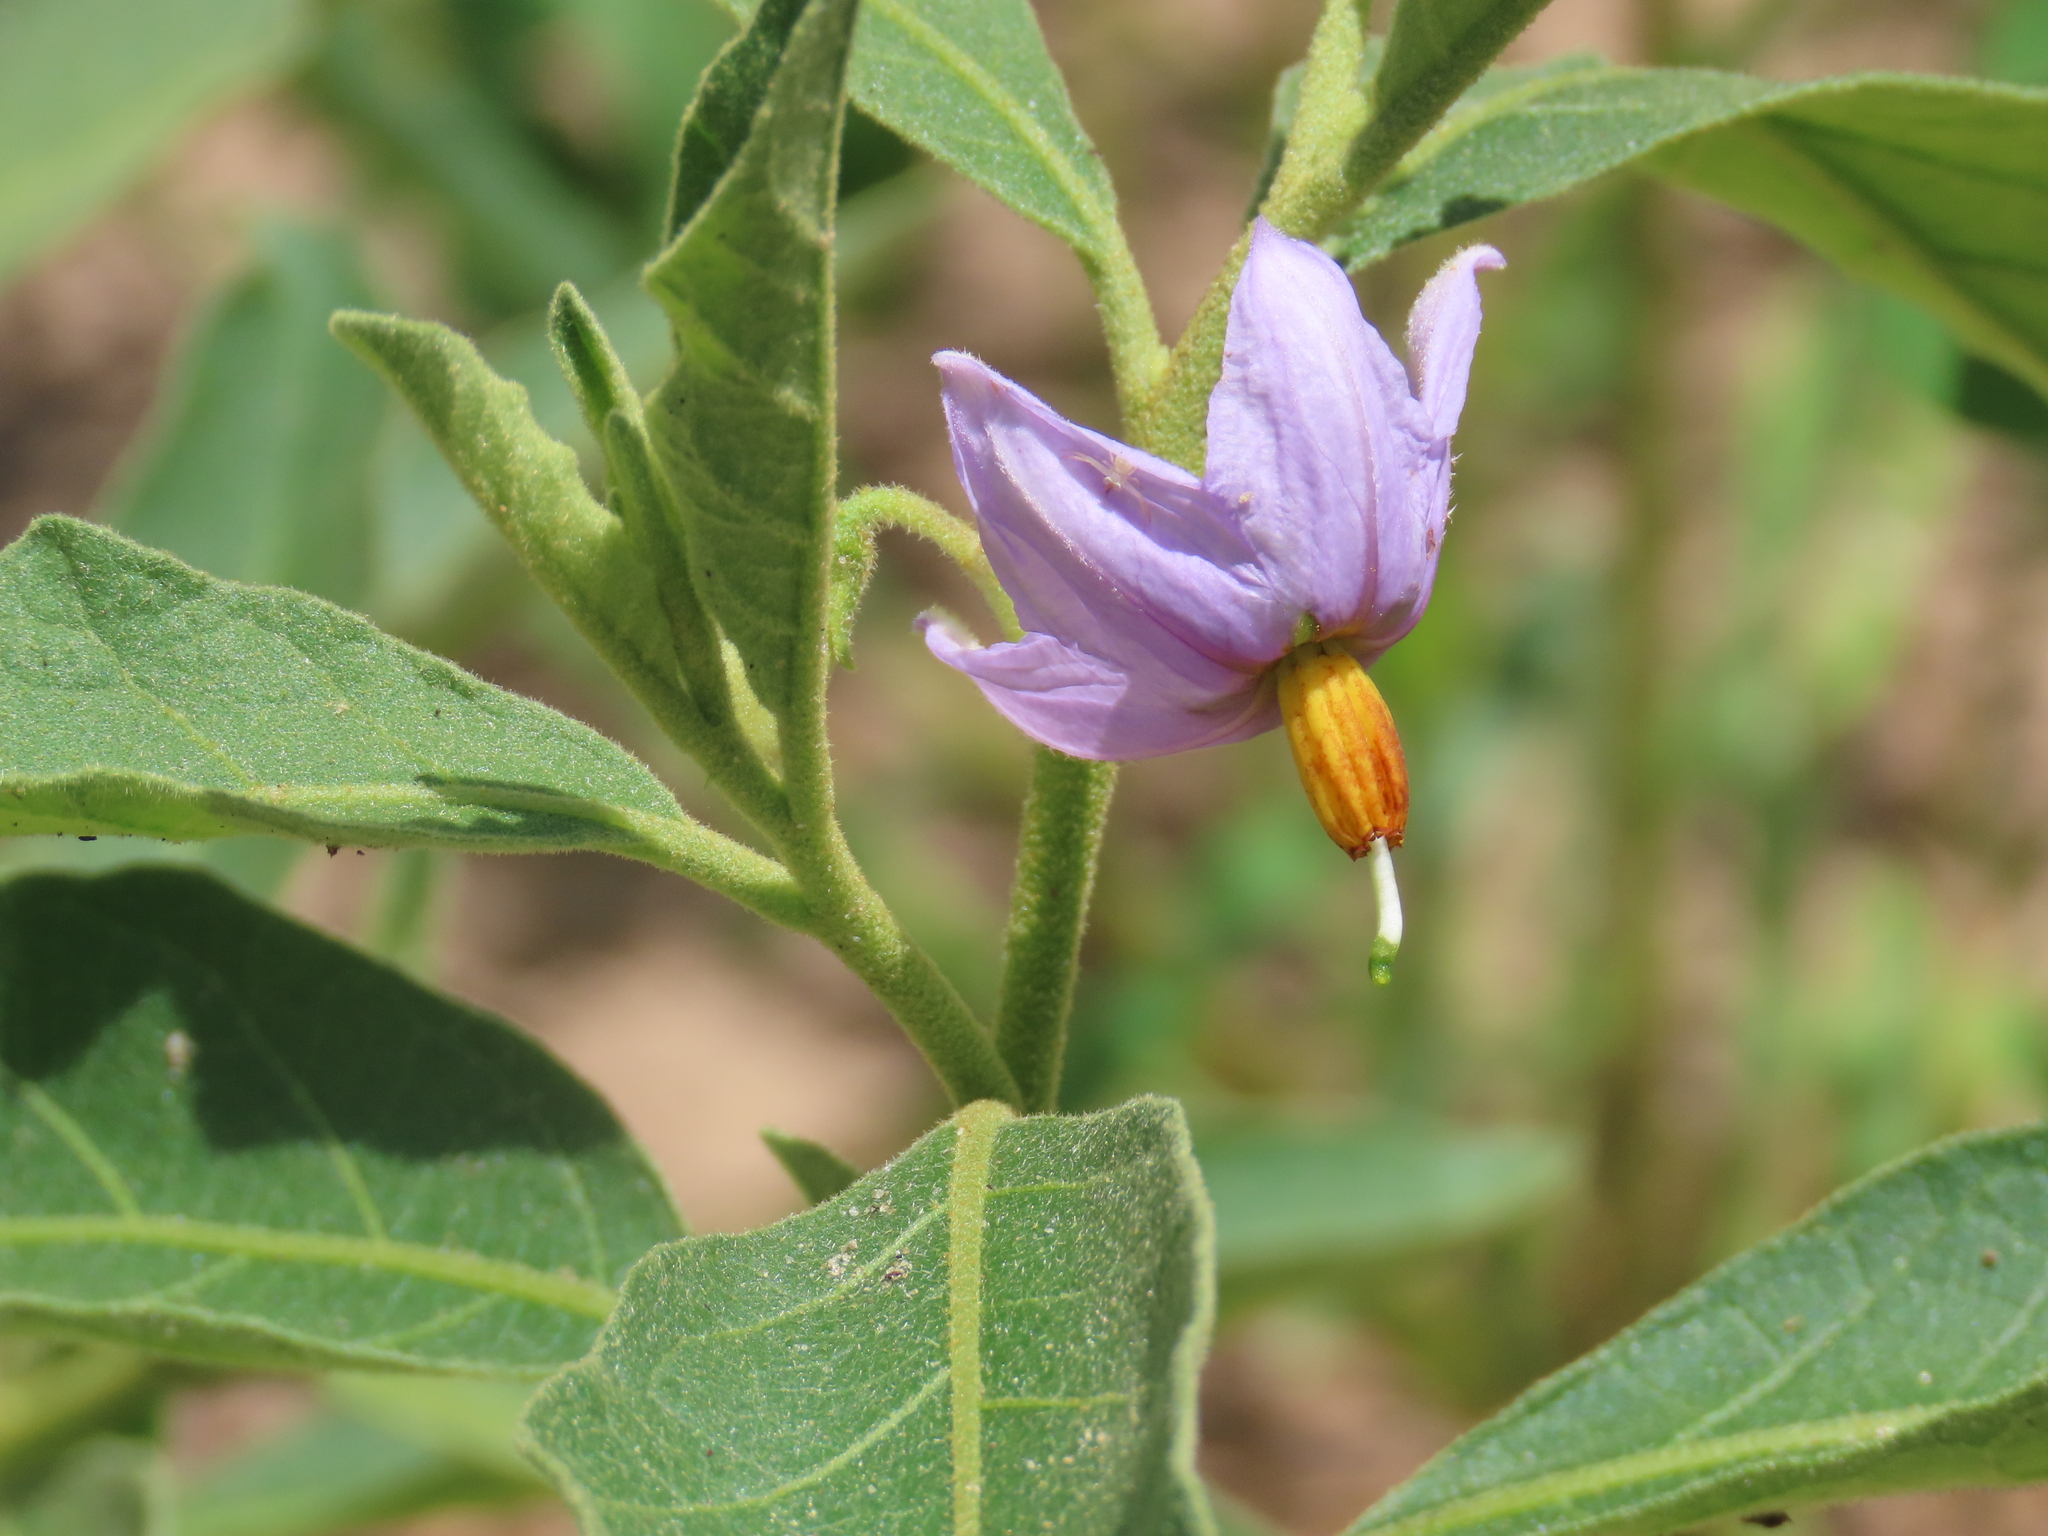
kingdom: Plantae
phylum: Tracheophyta
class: Magnoliopsida
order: Solanales
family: Solanaceae
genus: Solanum
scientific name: Solanum campylacanthum
